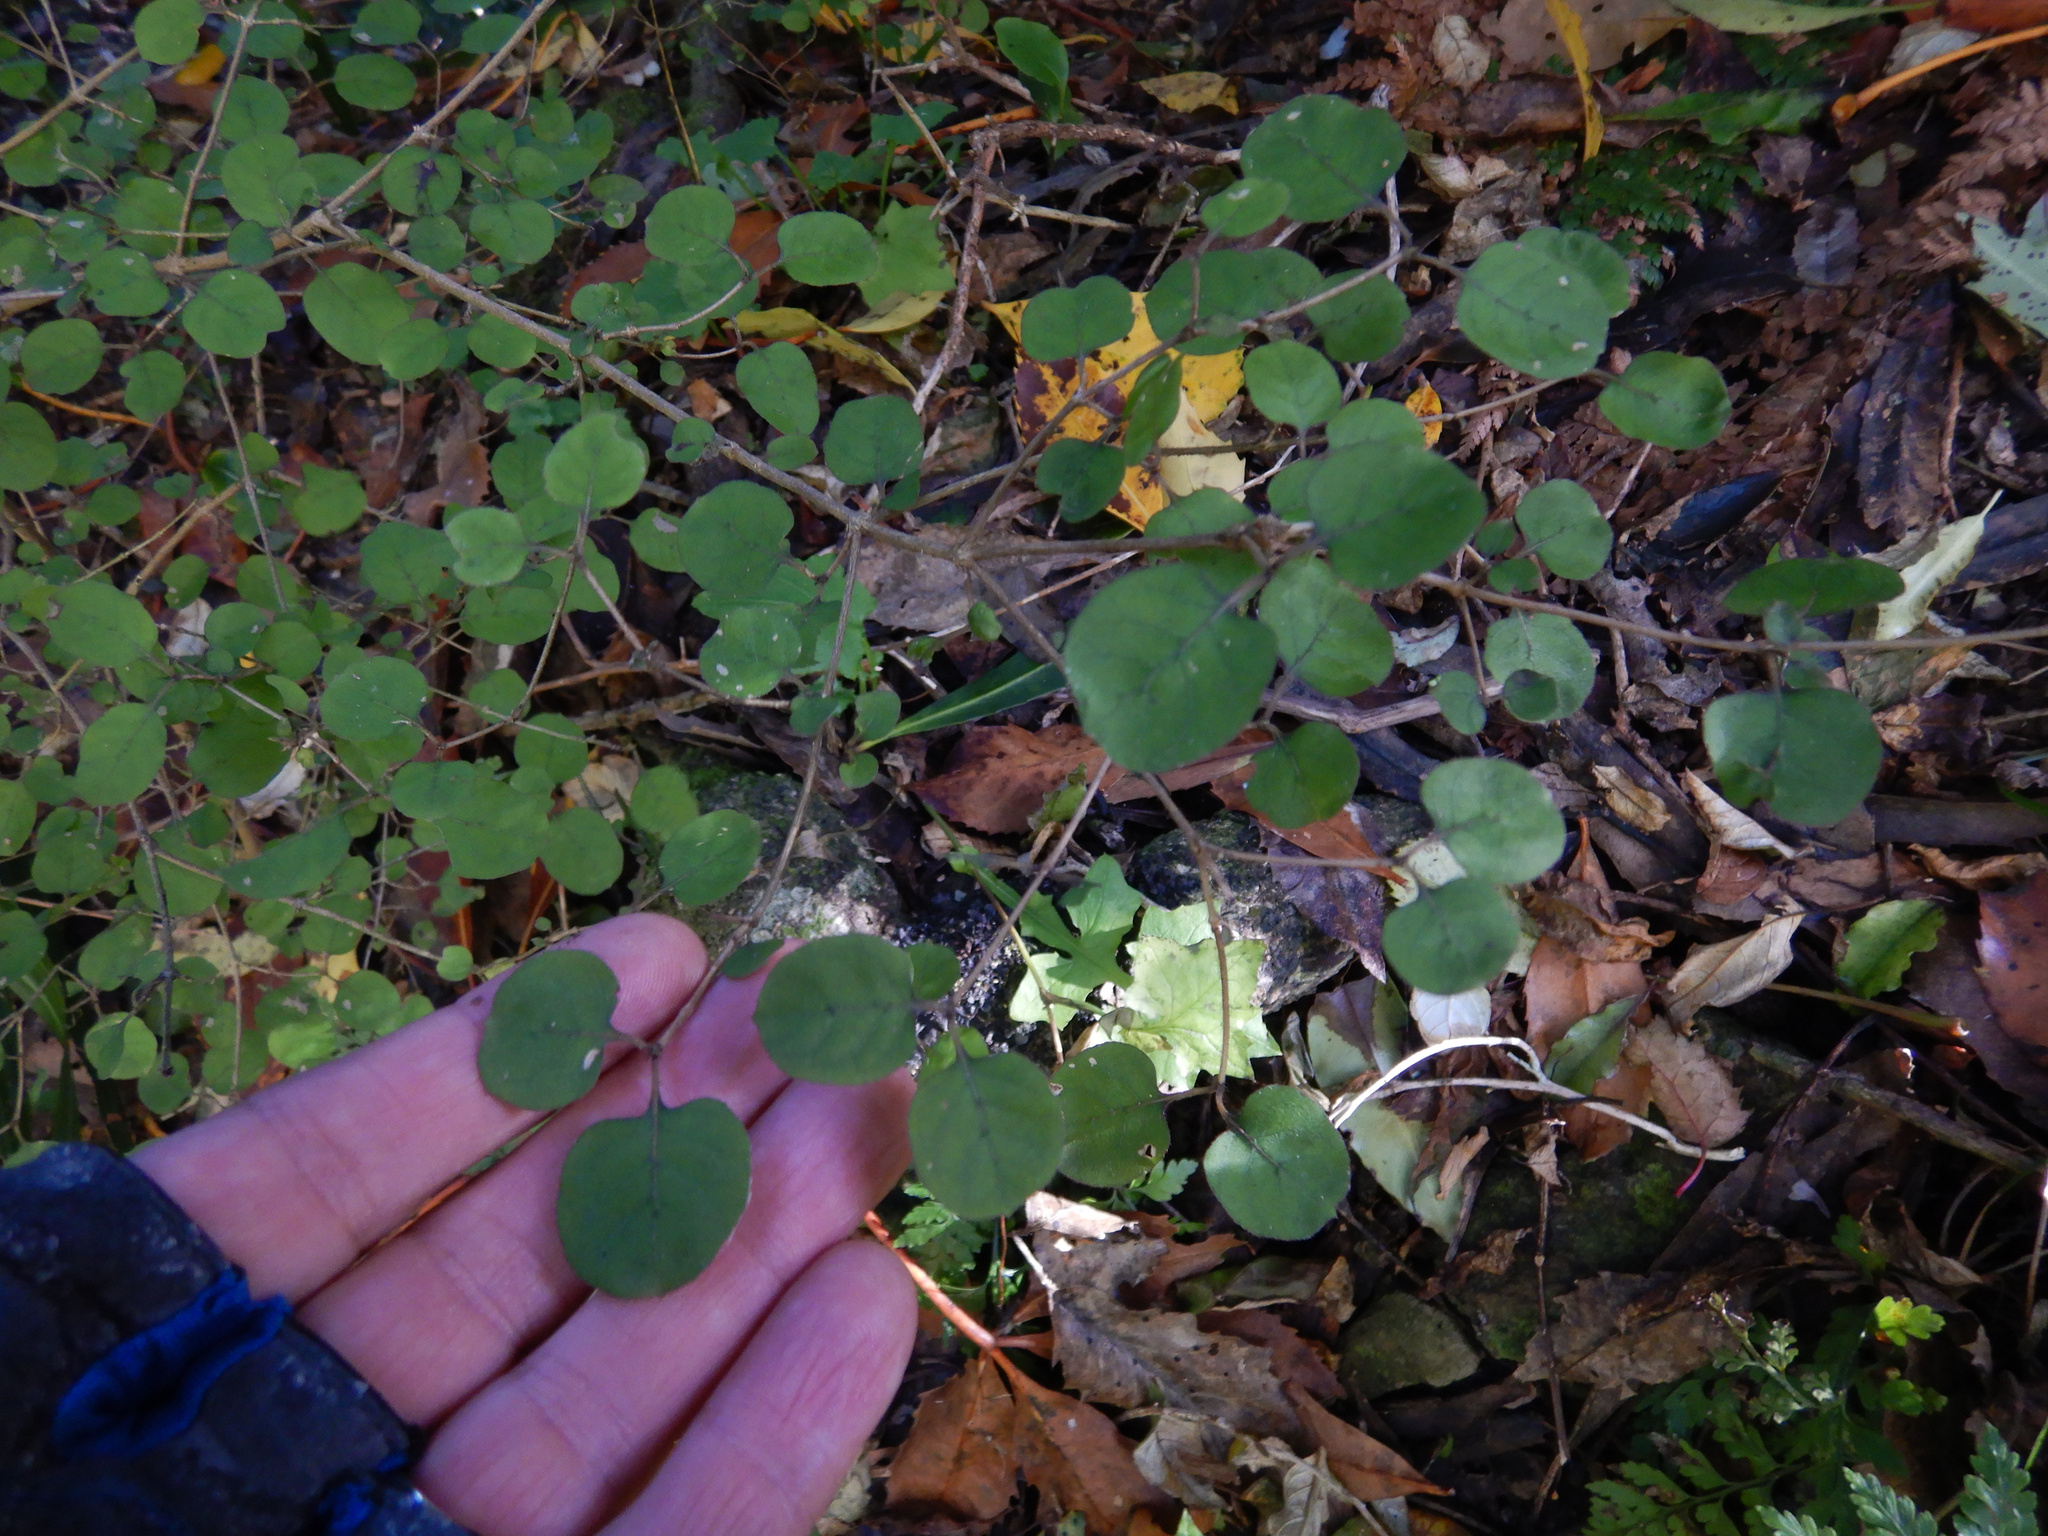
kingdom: Plantae
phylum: Tracheophyta
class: Magnoliopsida
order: Gentianales
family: Rubiaceae
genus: Coprosma
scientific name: Coprosma rotundifolia
